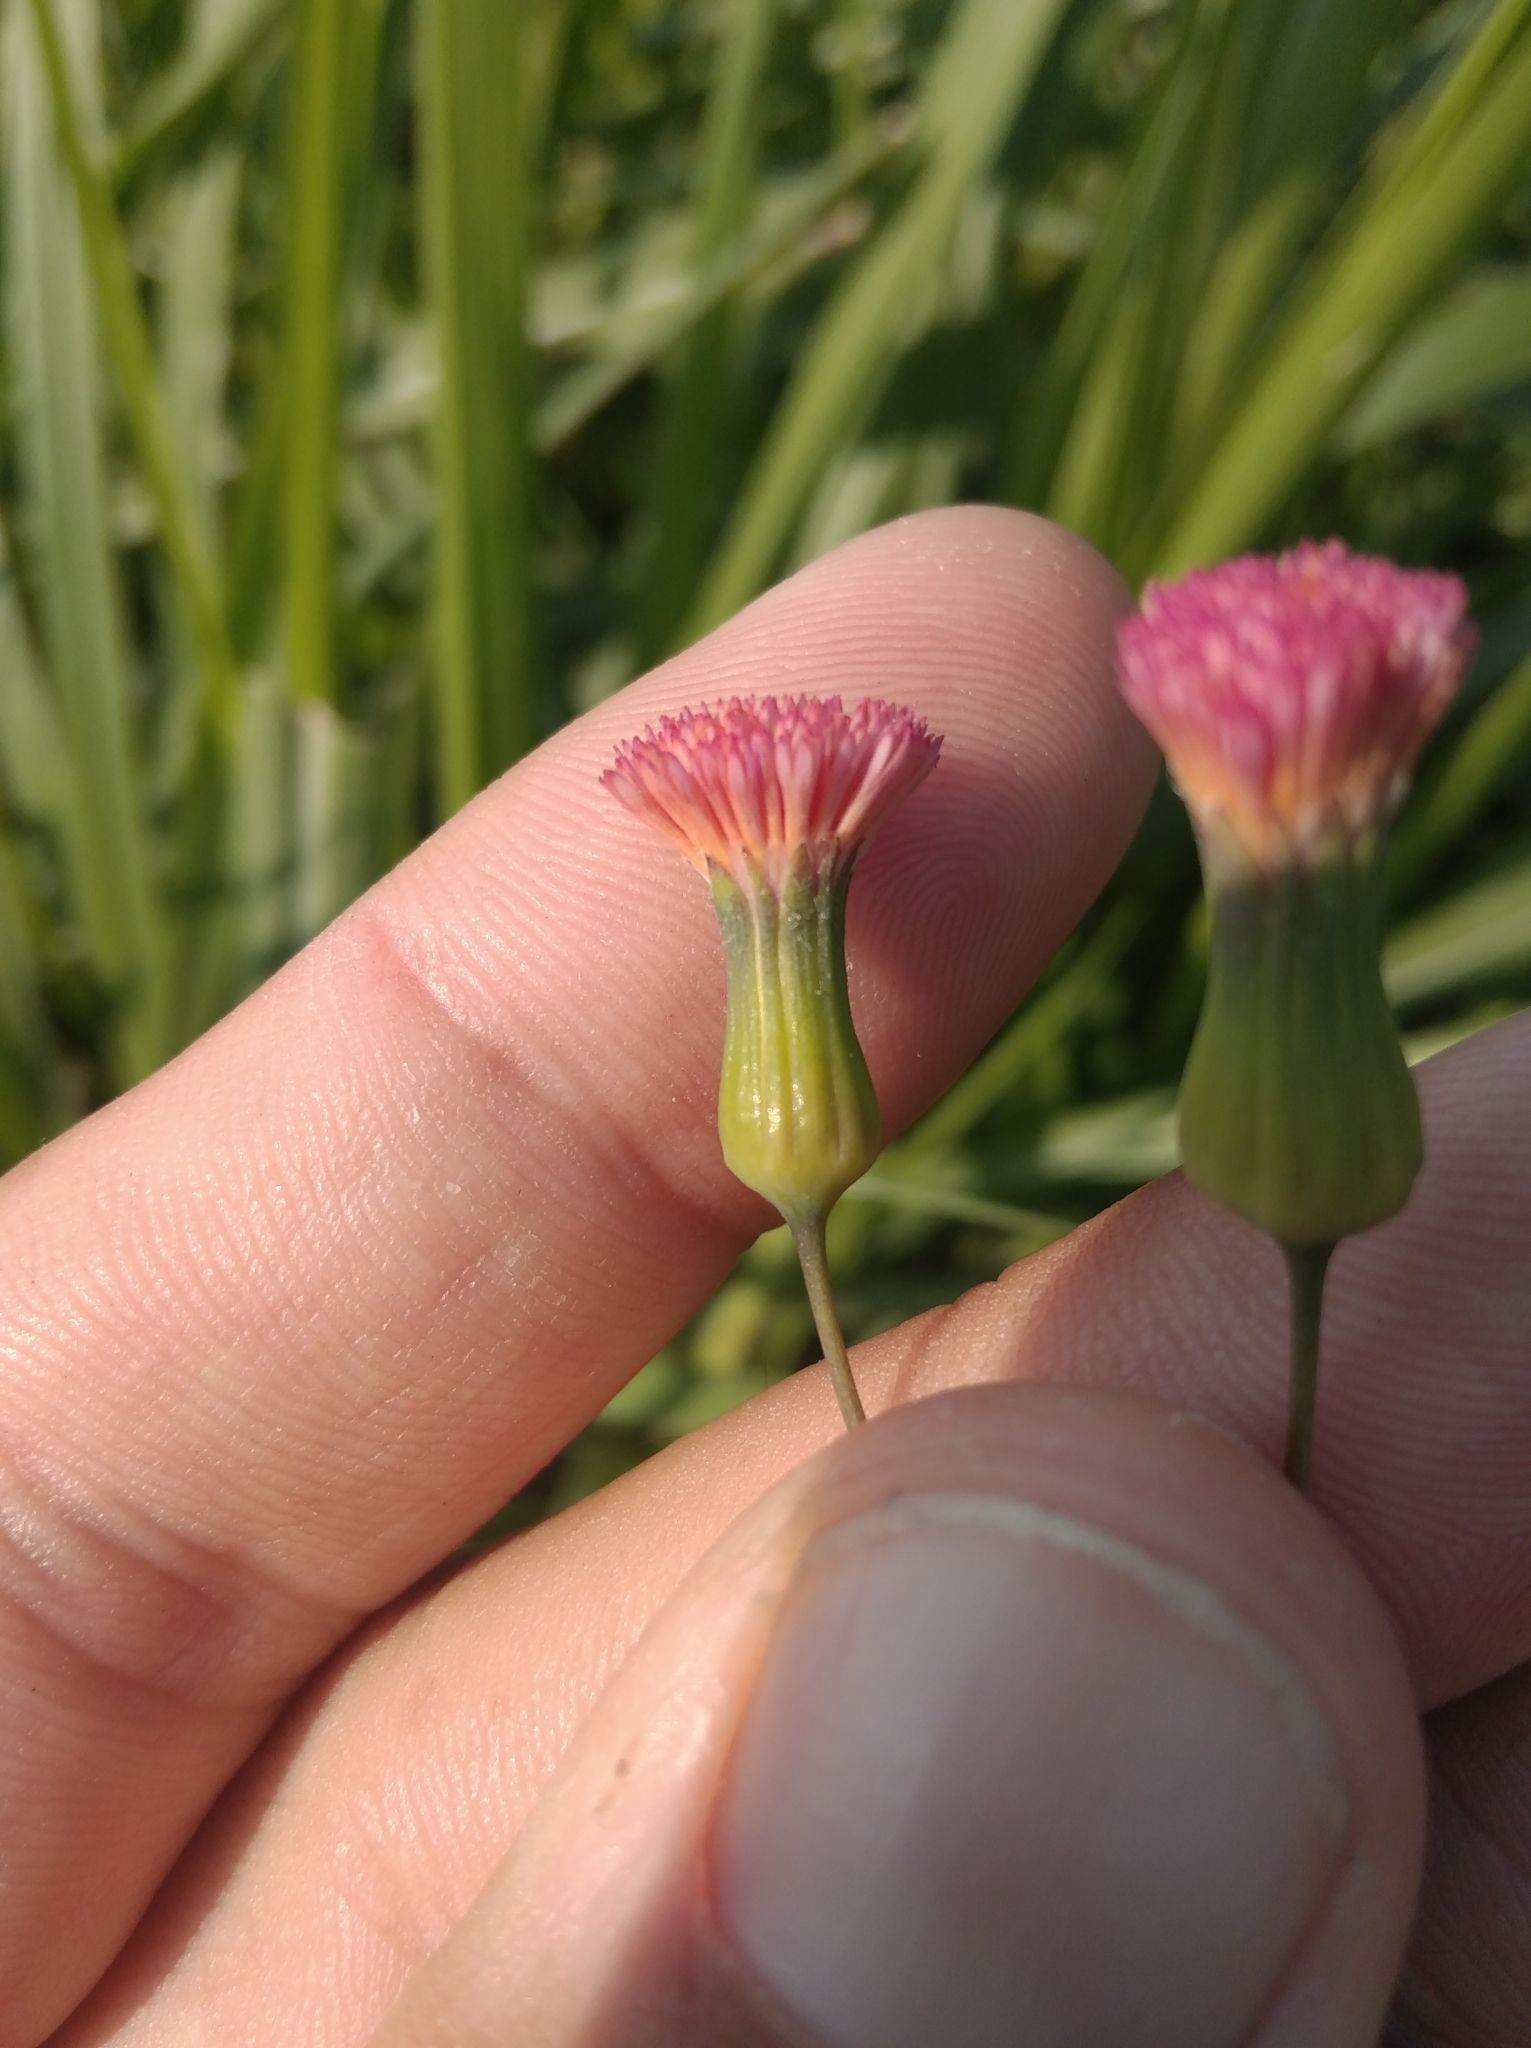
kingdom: Plantae
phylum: Tracheophyta
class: Magnoliopsida
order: Asterales
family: Asteraceae
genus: Emilia
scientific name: Emilia fosbergii
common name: Florida tasselflower
